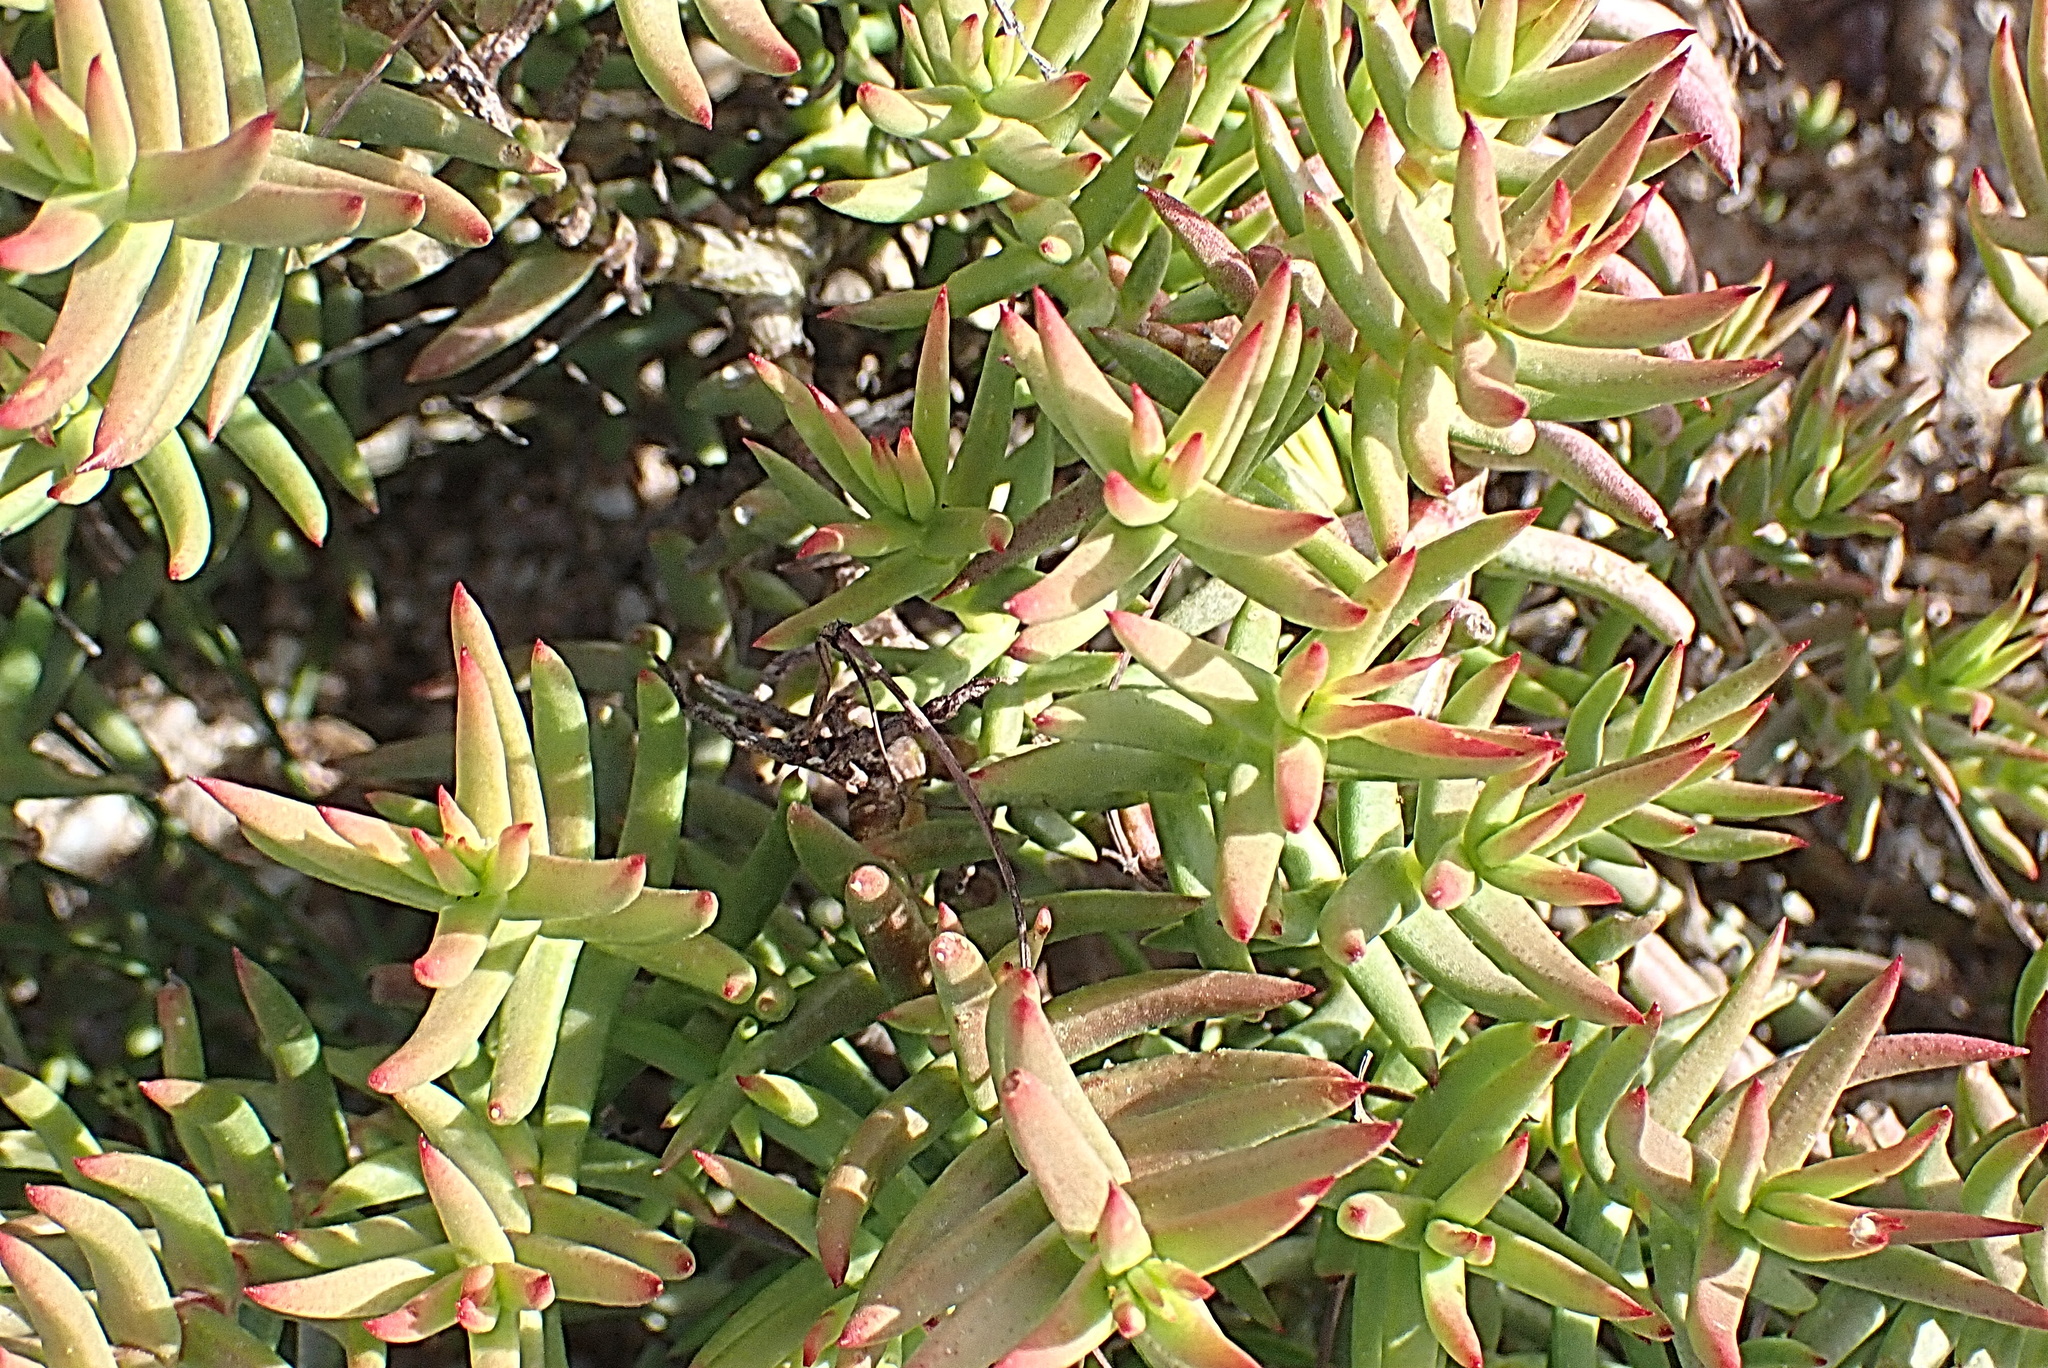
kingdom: Plantae
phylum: Tracheophyta
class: Magnoliopsida
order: Saxifragales
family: Crassulaceae
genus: Crassula
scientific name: Crassula tetragona
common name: Pygmyweed
